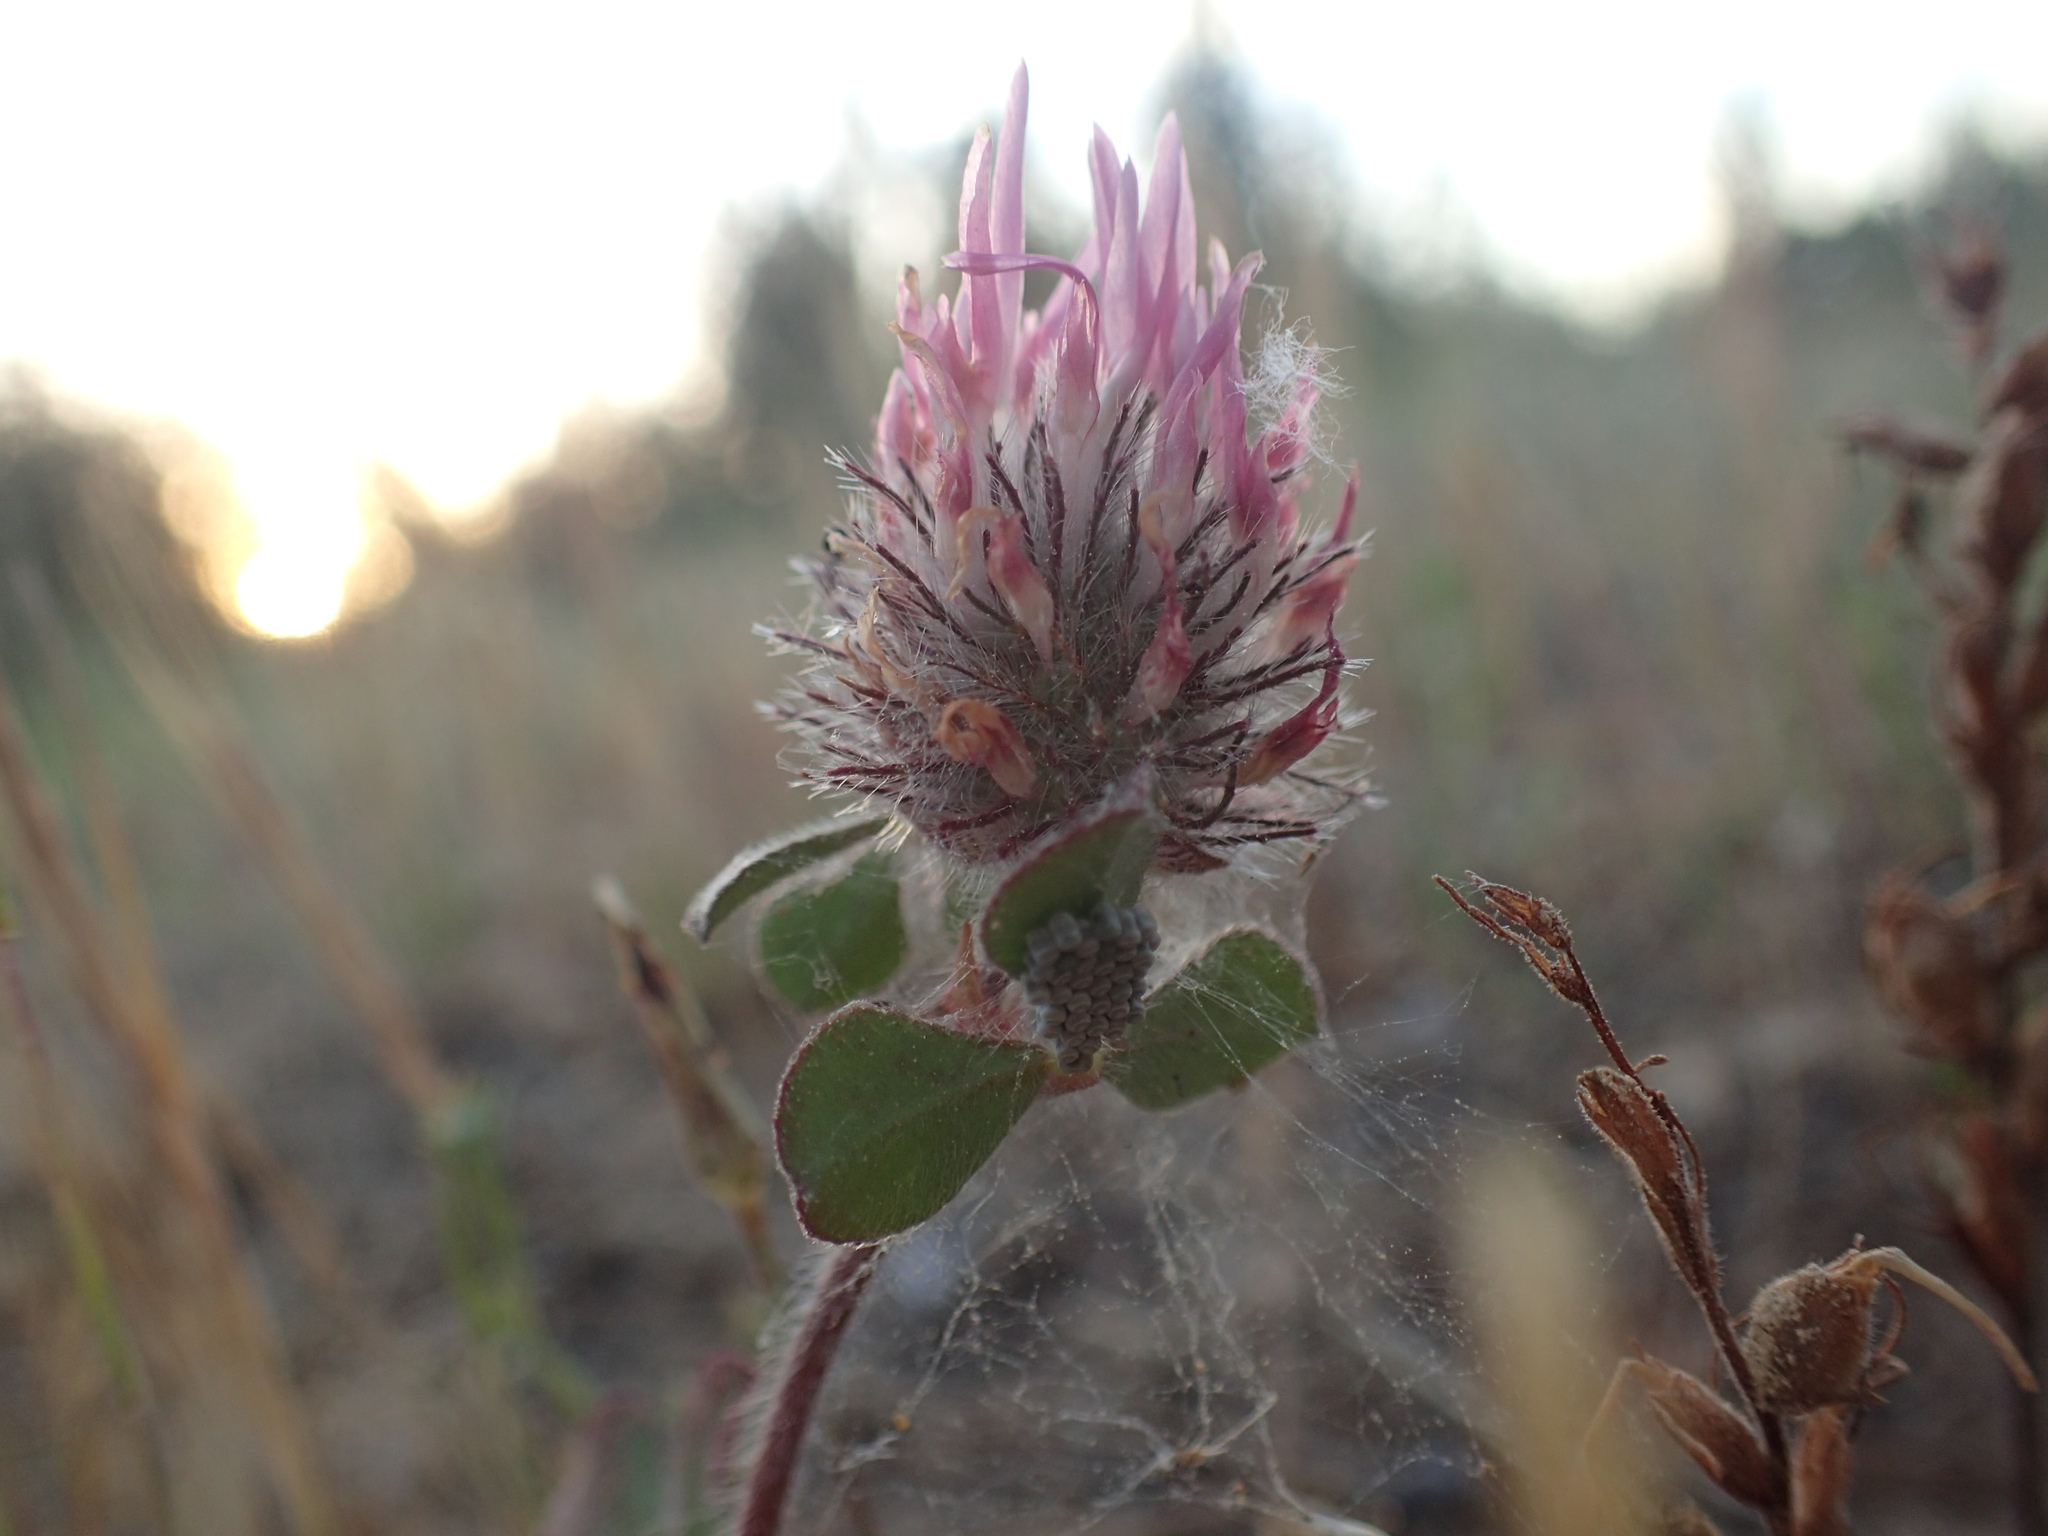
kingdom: Plantae
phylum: Tracheophyta
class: Magnoliopsida
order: Fabales
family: Fabaceae
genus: Trifolium
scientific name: Trifolium hirtum
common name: Rose clover
